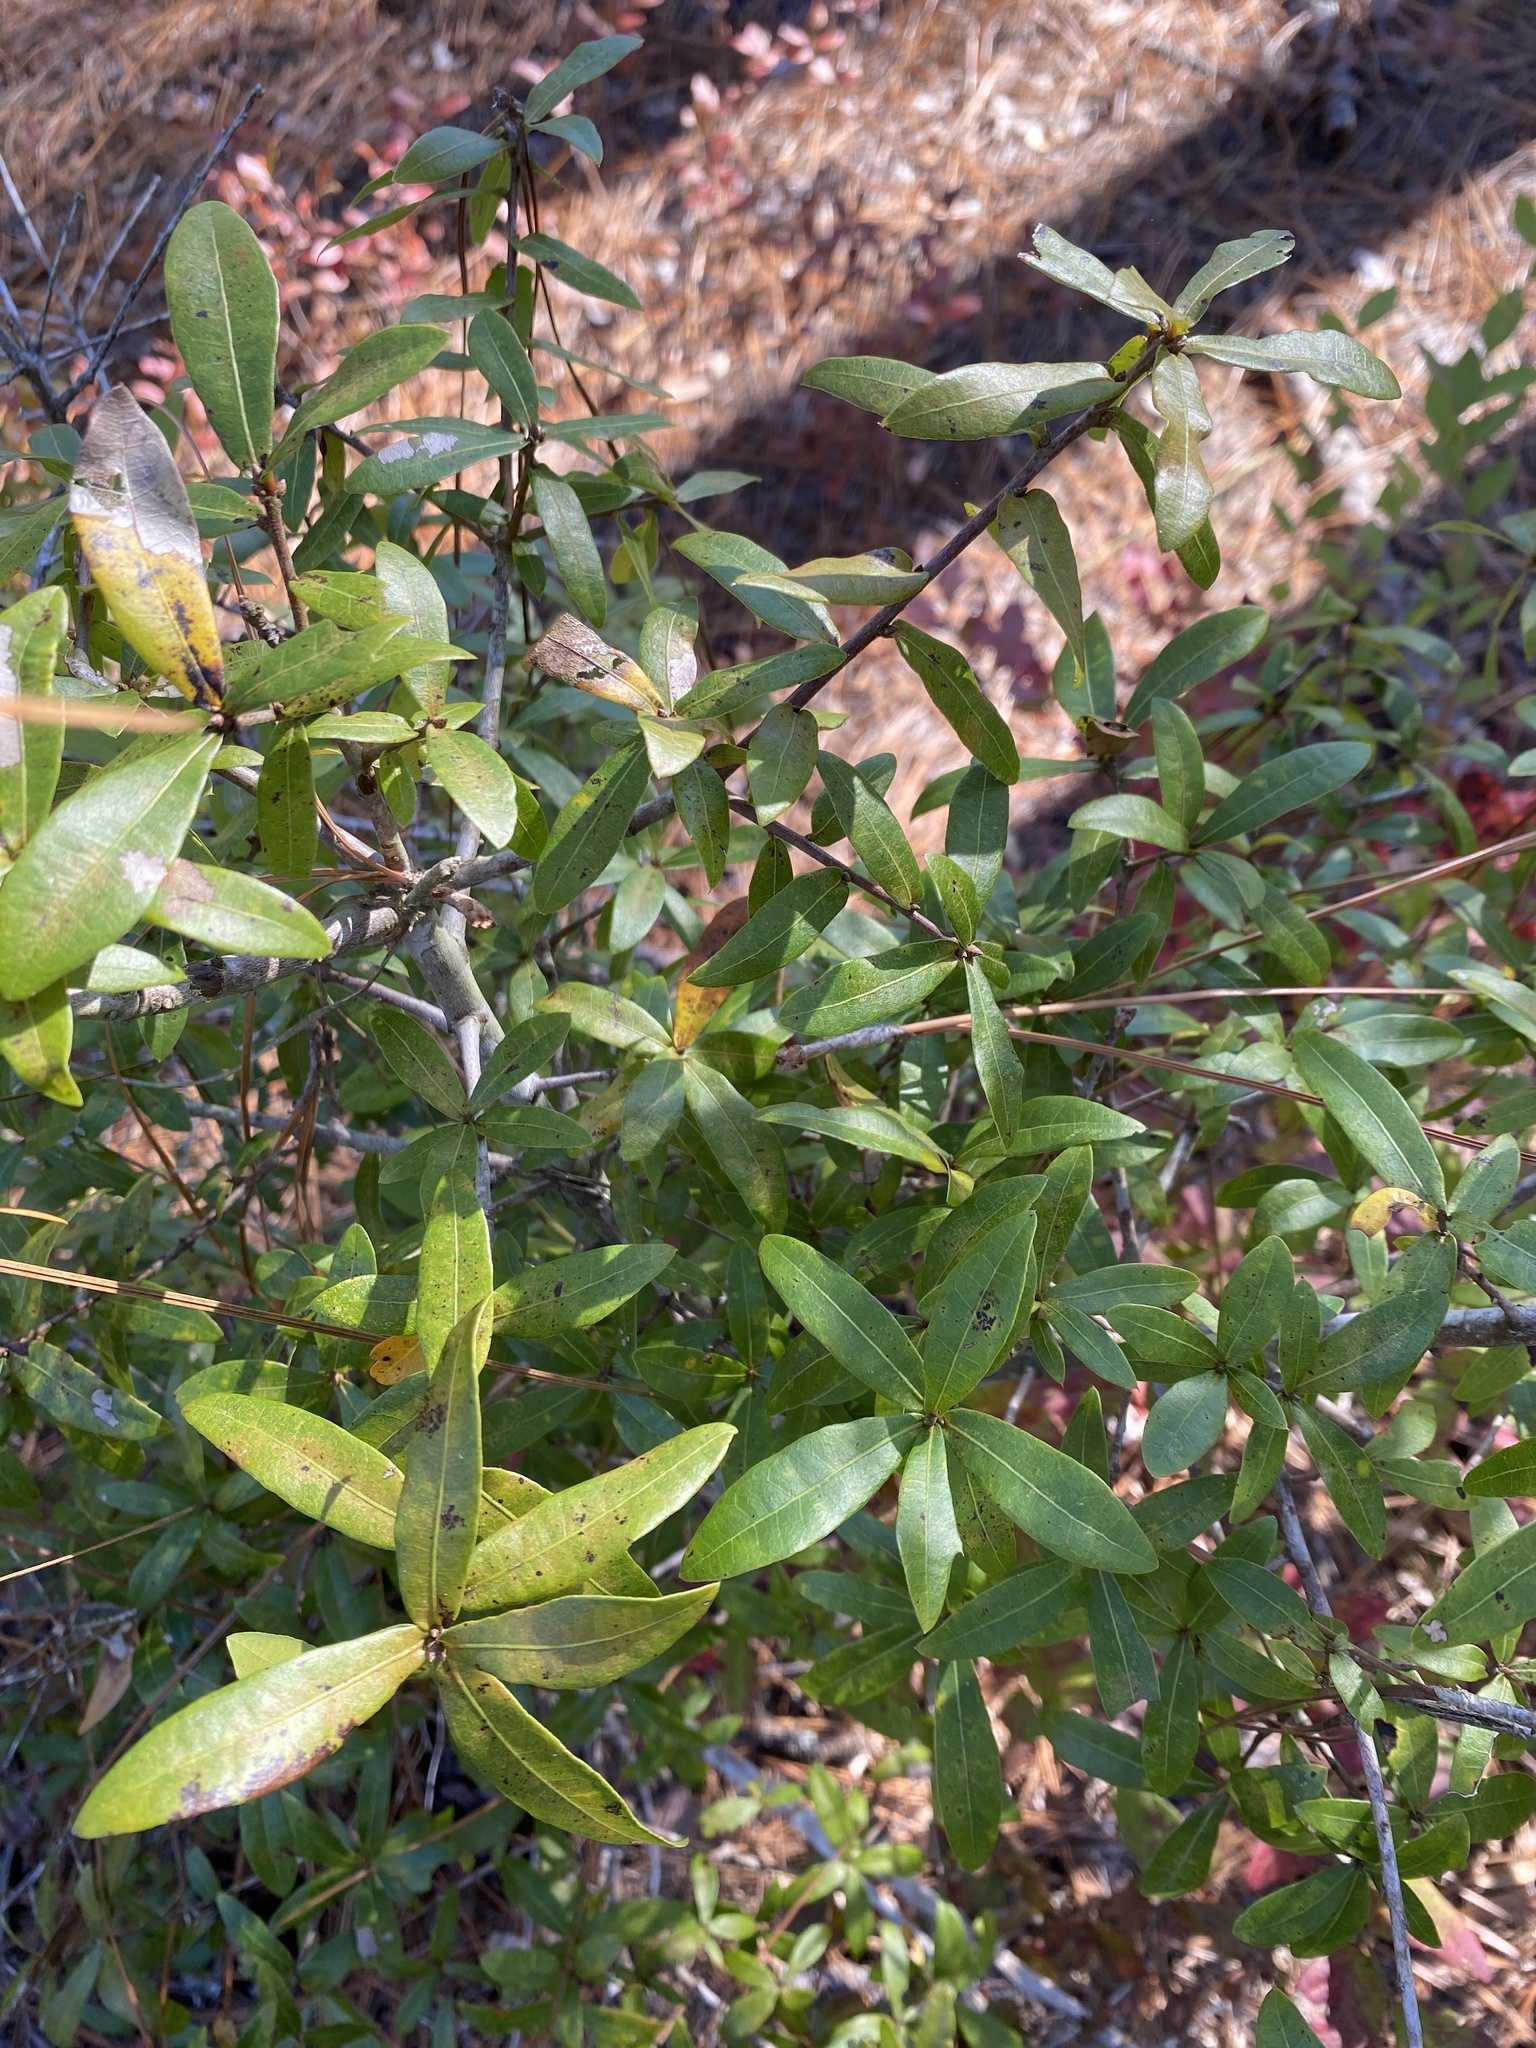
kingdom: Plantae
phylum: Tracheophyta
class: Magnoliopsida
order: Fagales
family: Fagaceae
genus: Quercus
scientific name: Quercus hemisphaerica
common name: Darlington oak
